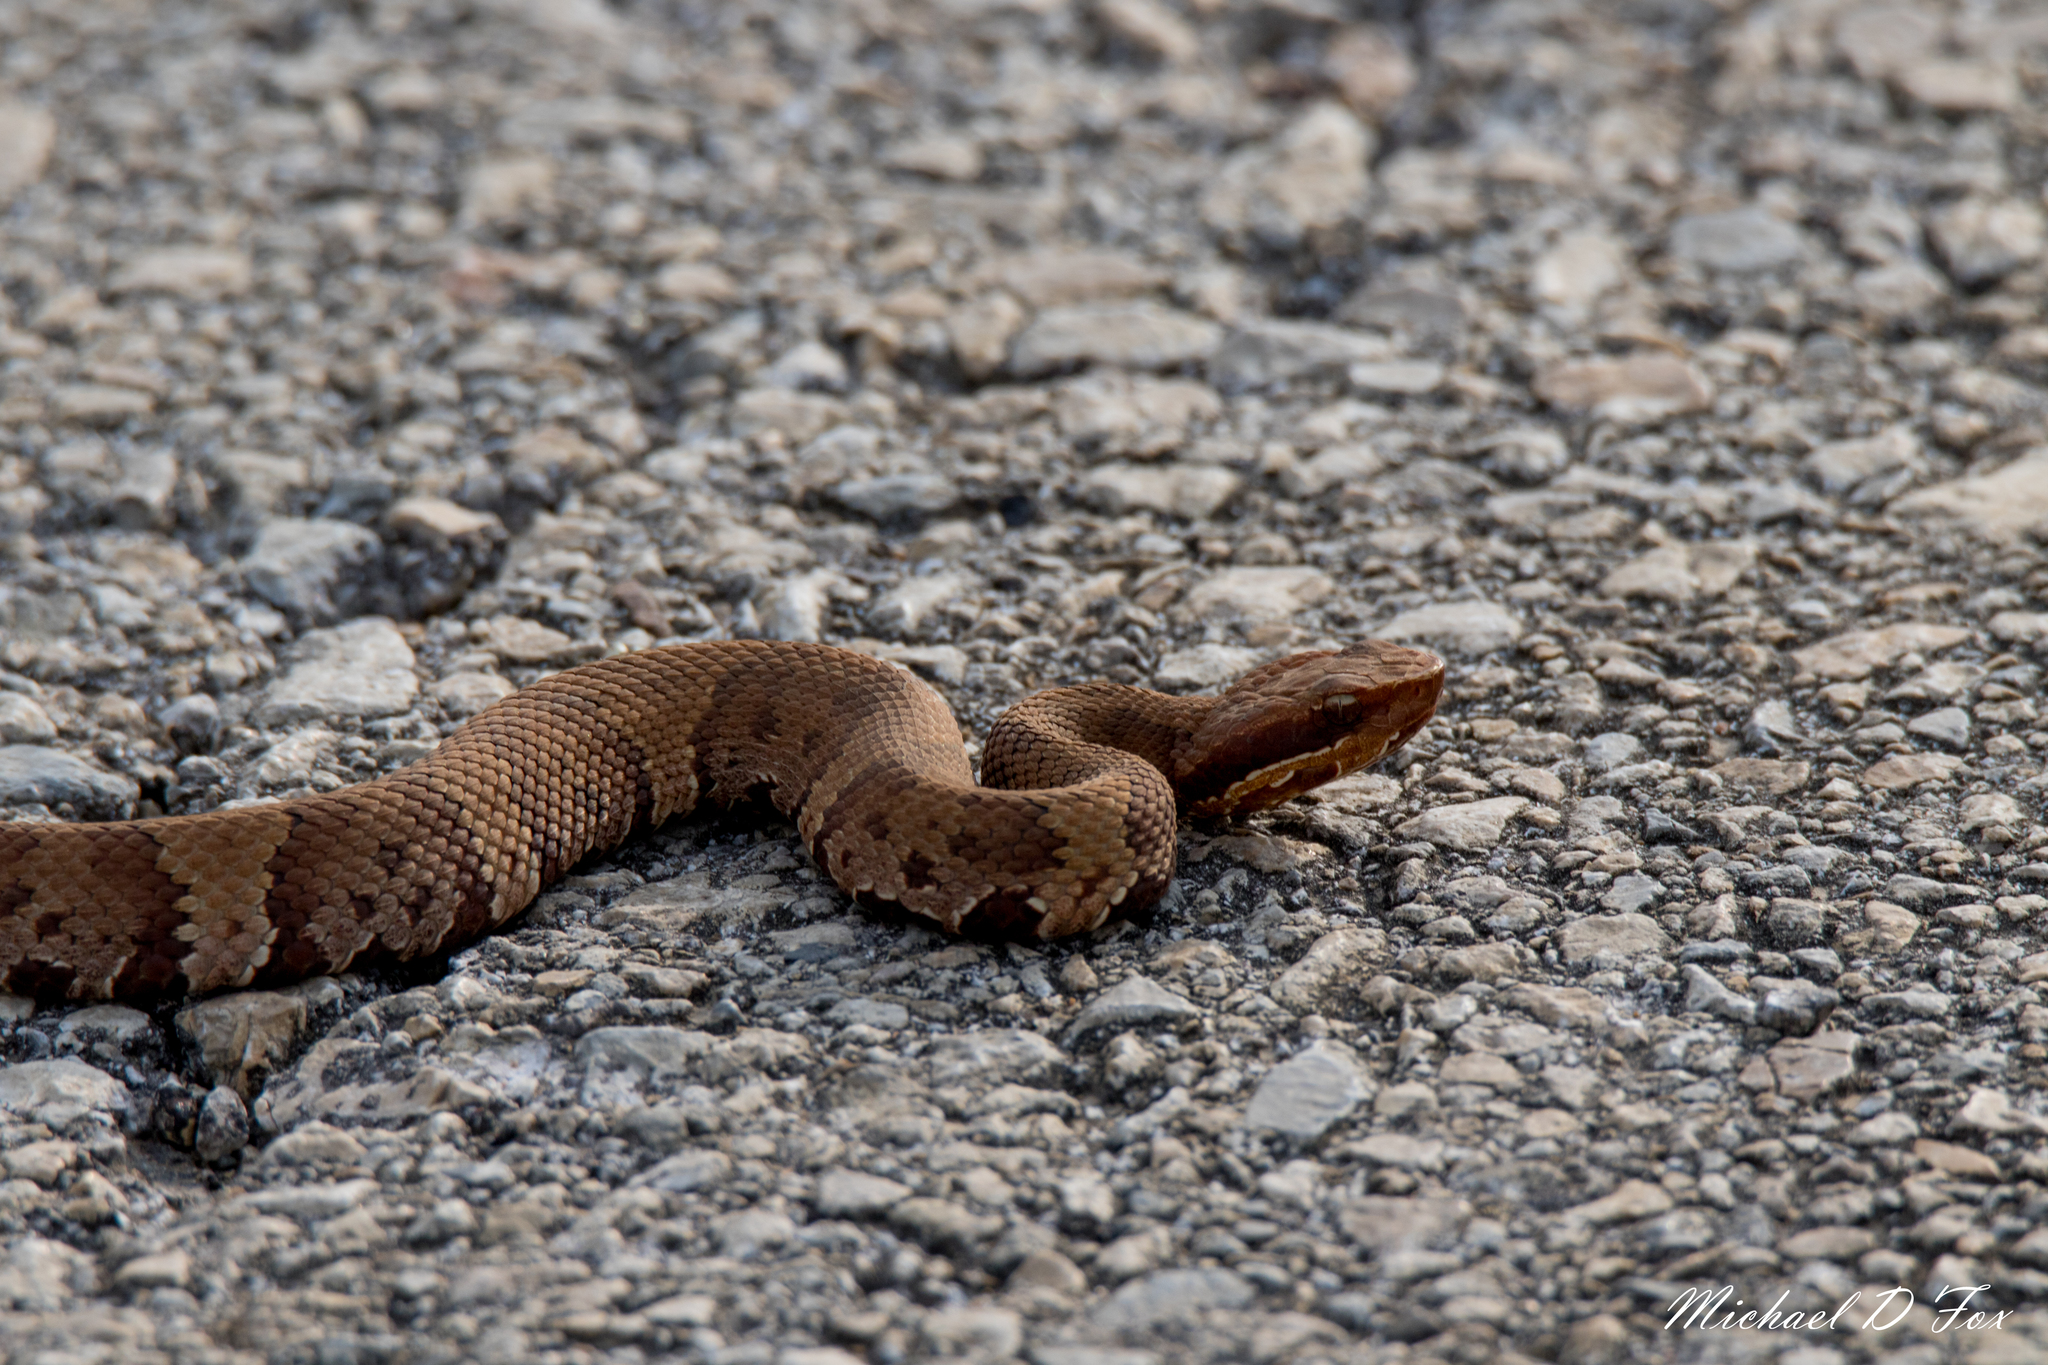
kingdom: Animalia
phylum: Chordata
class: Squamata
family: Viperidae
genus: Agkistrodon
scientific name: Agkistrodon piscivorus
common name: Cottonmouth
